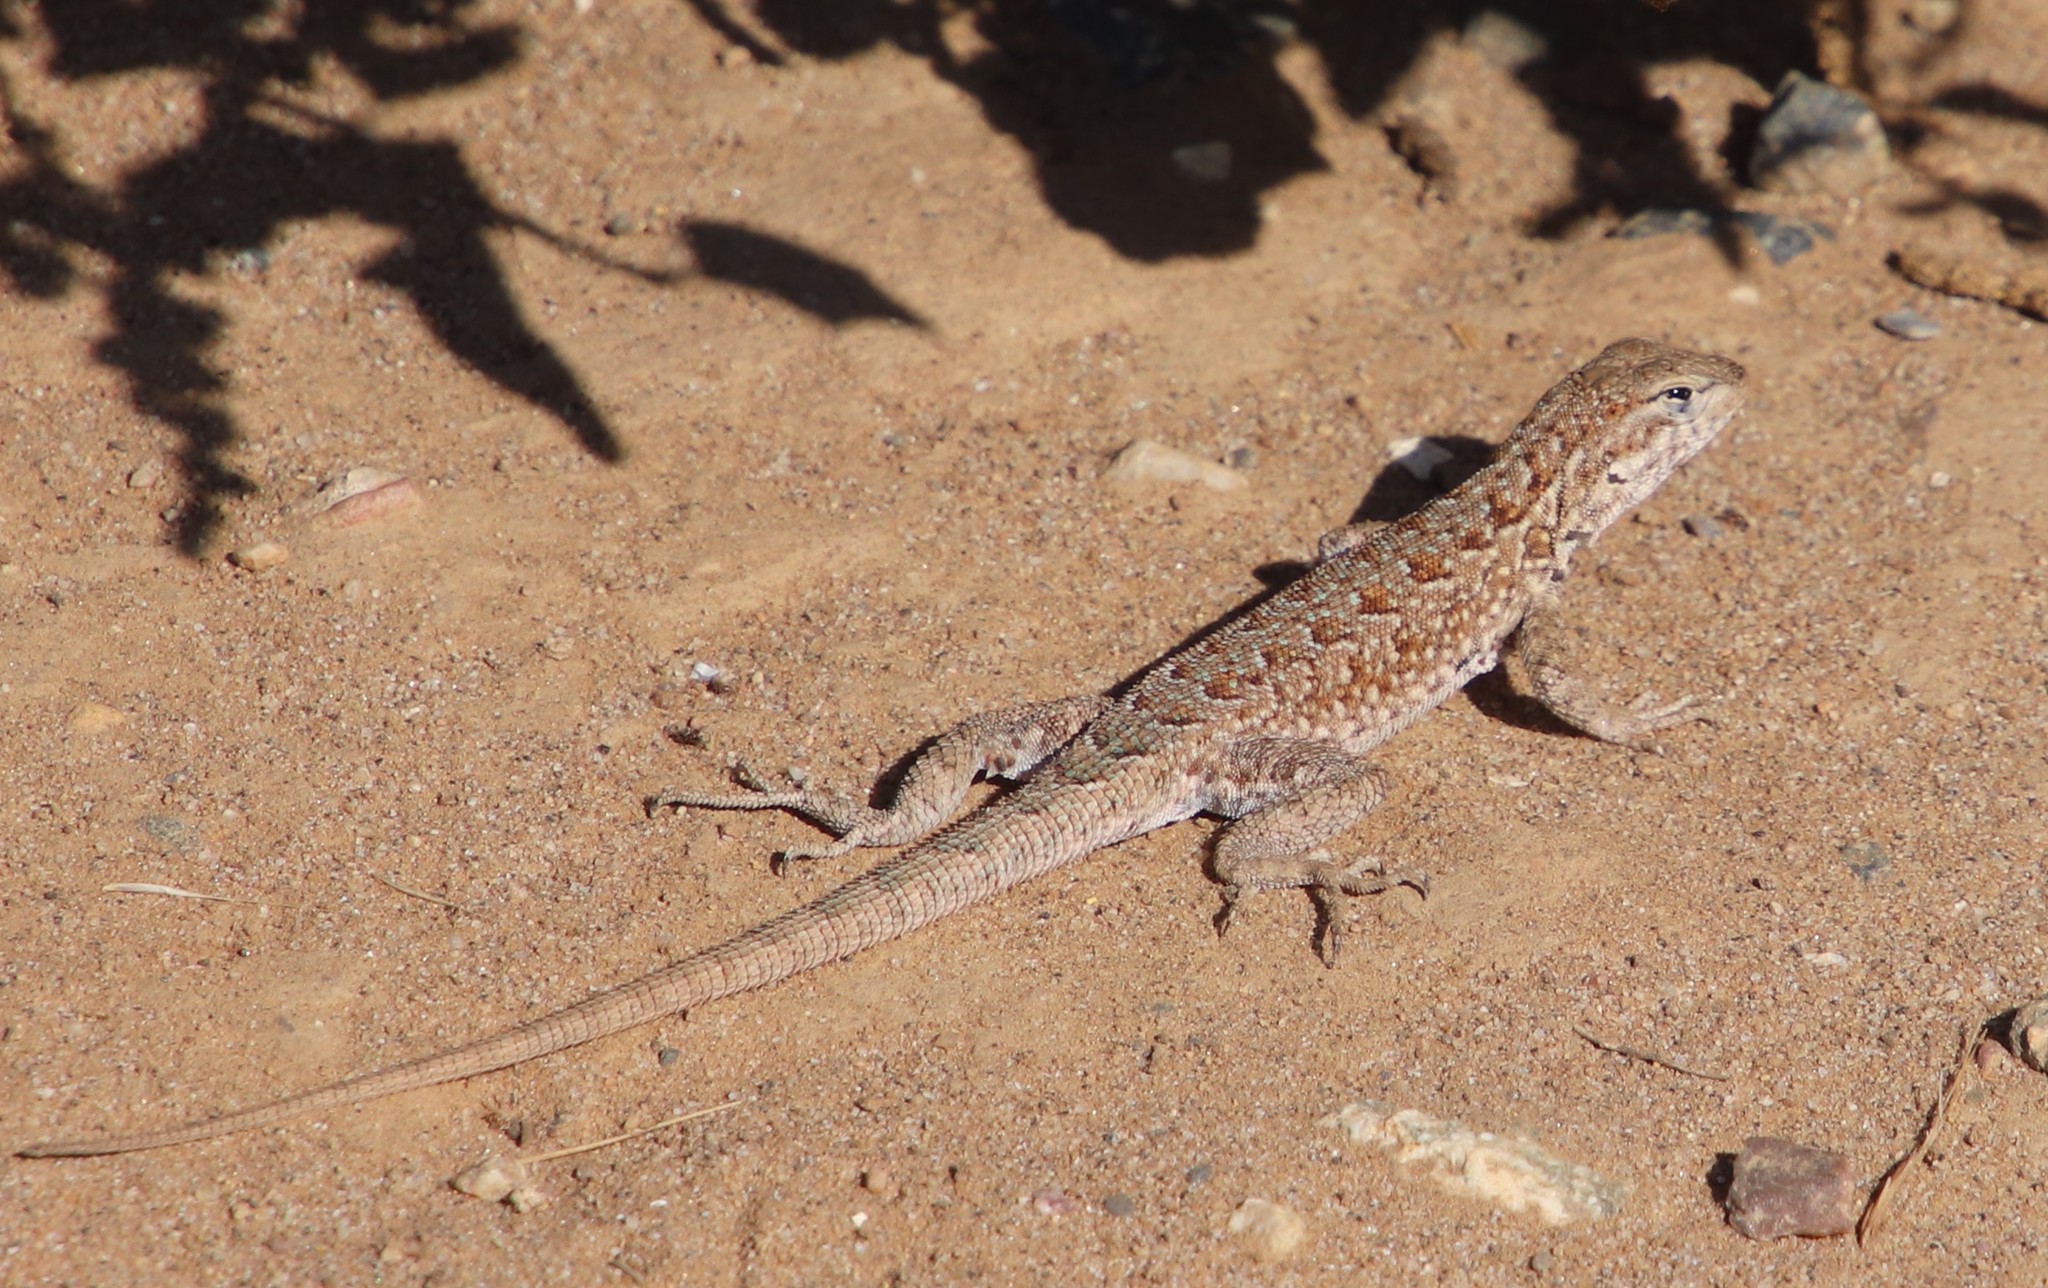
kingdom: Animalia
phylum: Chordata
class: Squamata
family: Phrynosomatidae
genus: Uta
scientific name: Uta stansburiana
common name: Side-blotched lizard
